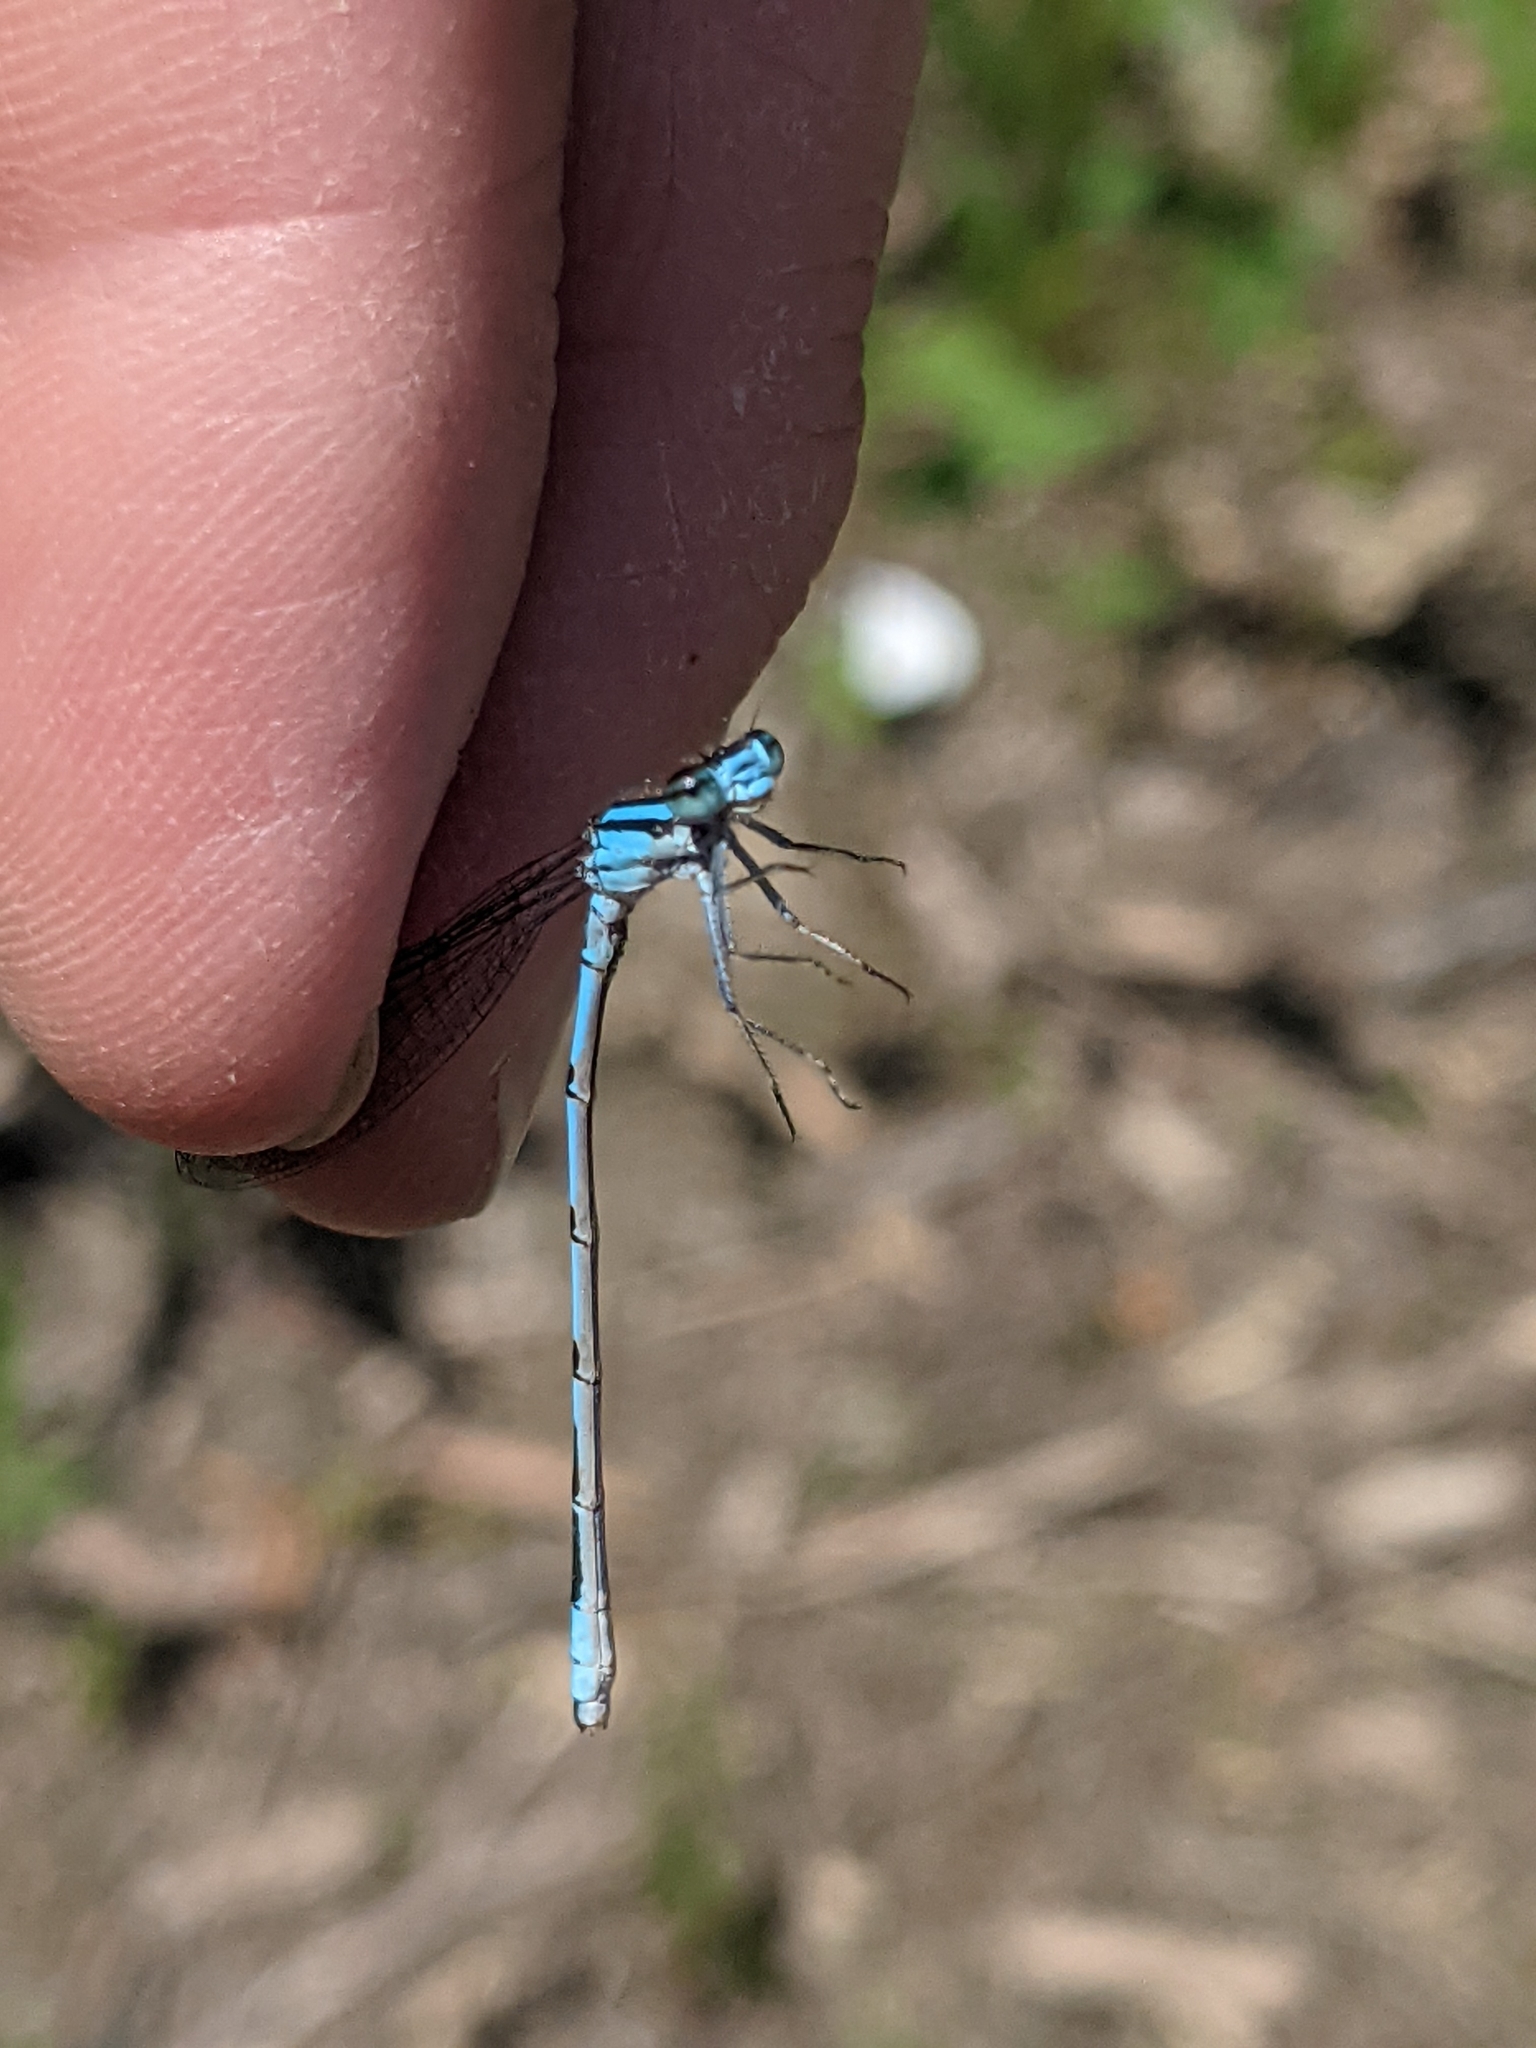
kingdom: Animalia
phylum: Arthropoda
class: Insecta
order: Odonata
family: Coenagrionidae
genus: Enallagma
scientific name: Enallagma hageni
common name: Hagen's bluet
